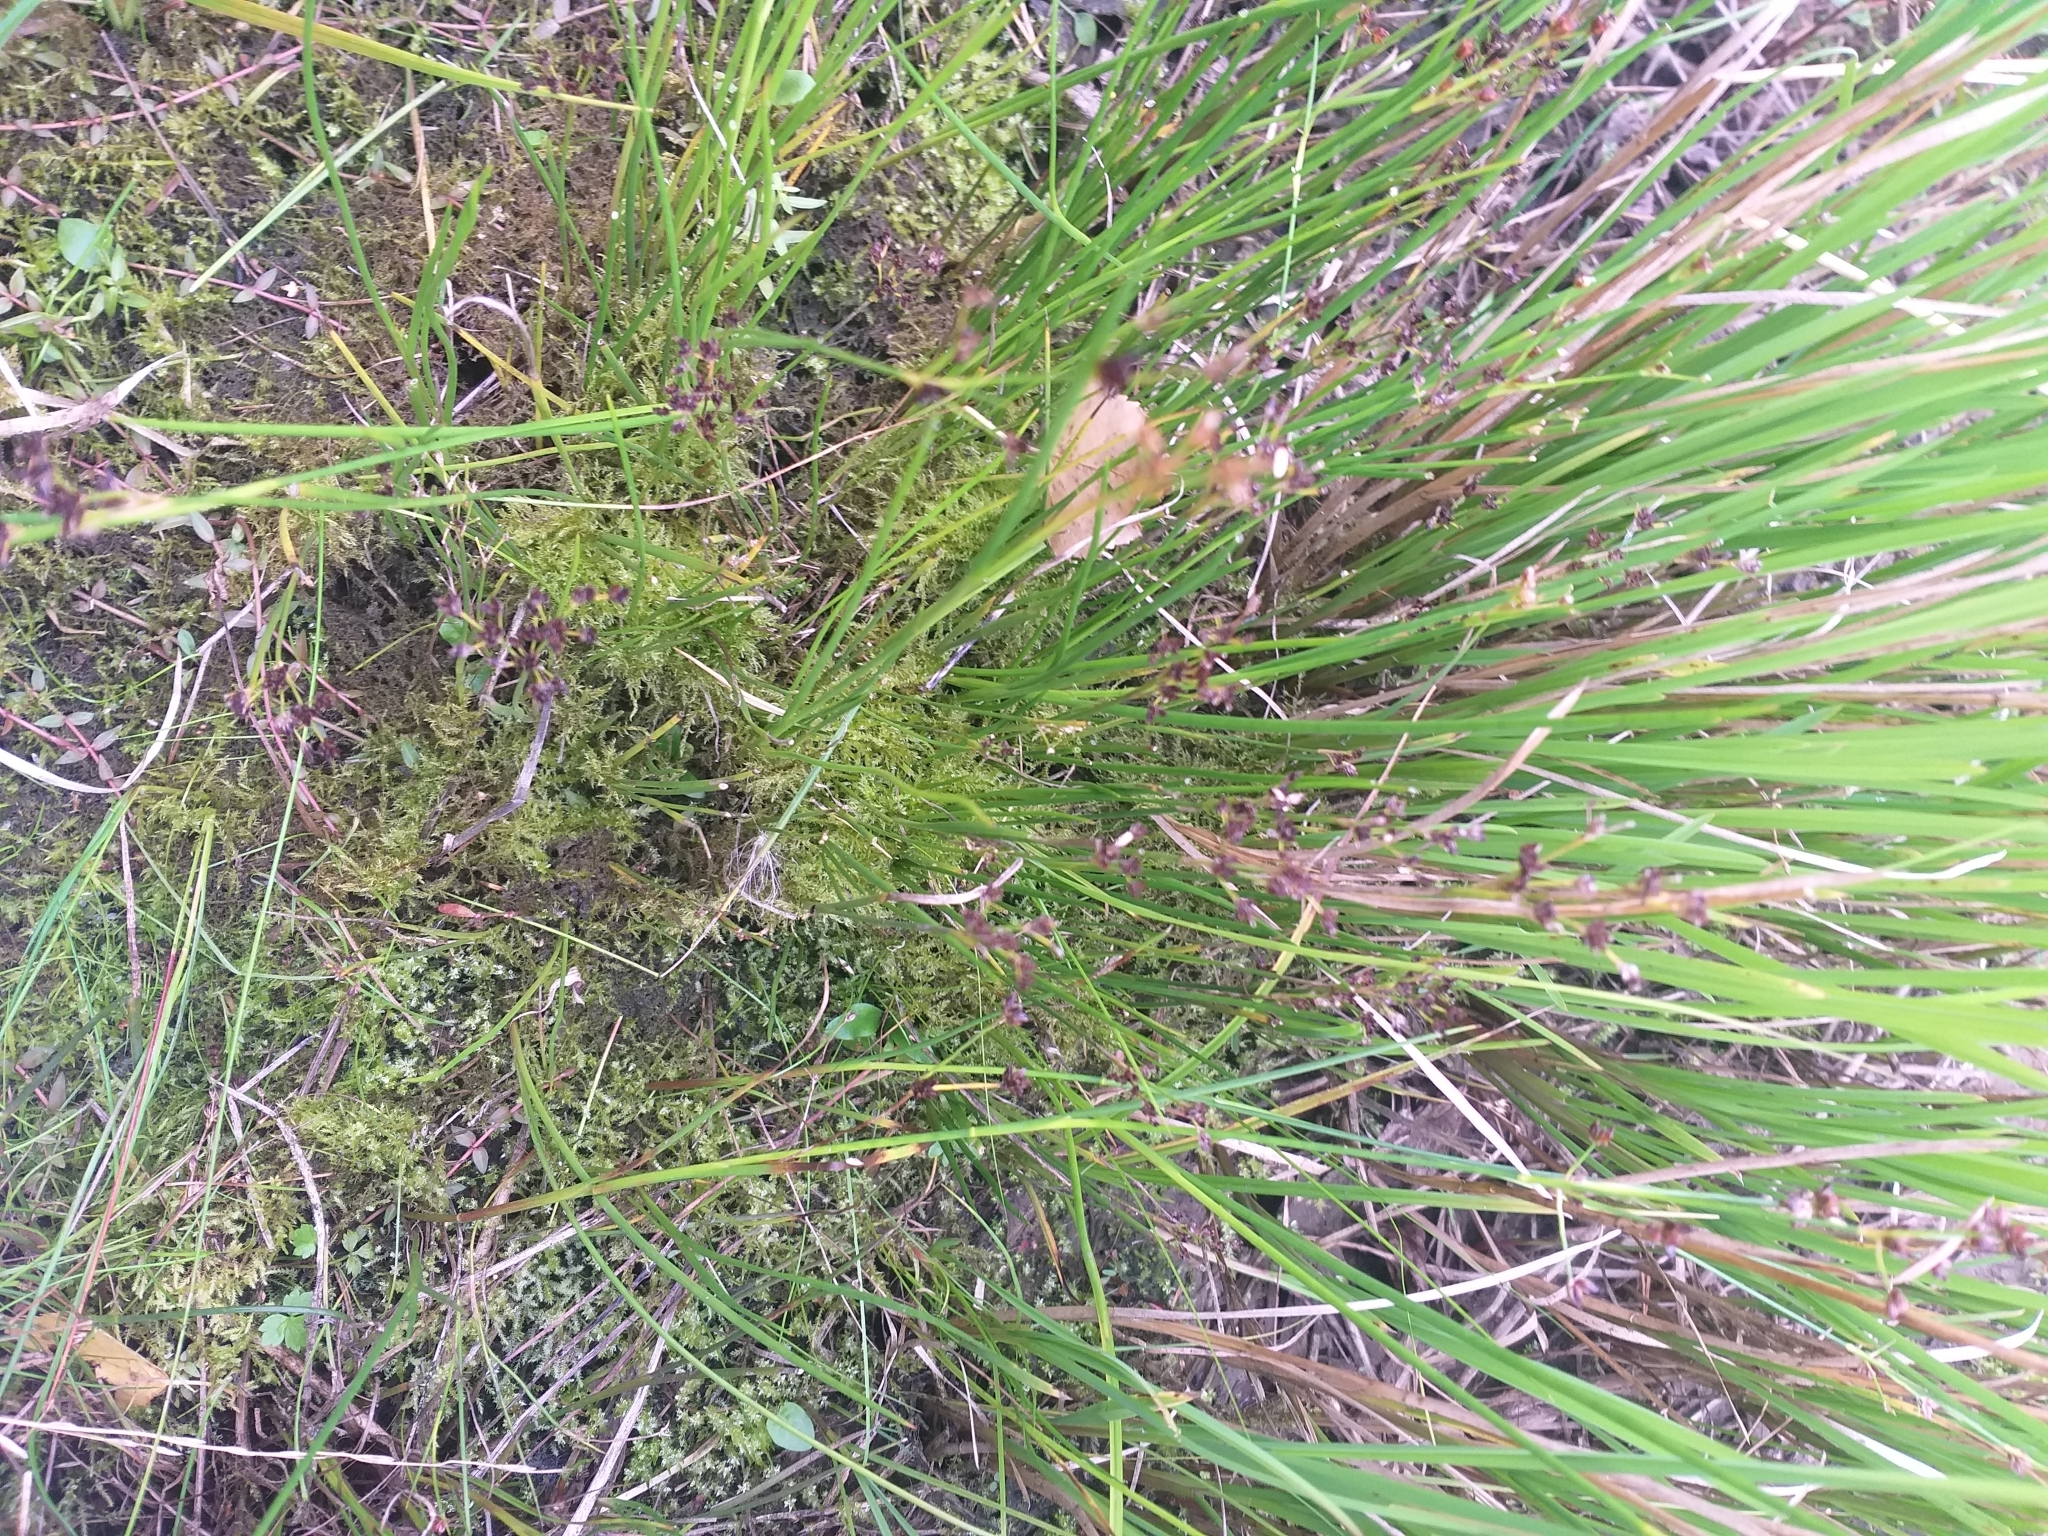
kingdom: Plantae
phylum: Tracheophyta
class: Liliopsida
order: Poales
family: Juncaceae
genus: Juncus
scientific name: Juncus articulatus
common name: Jointed rush
